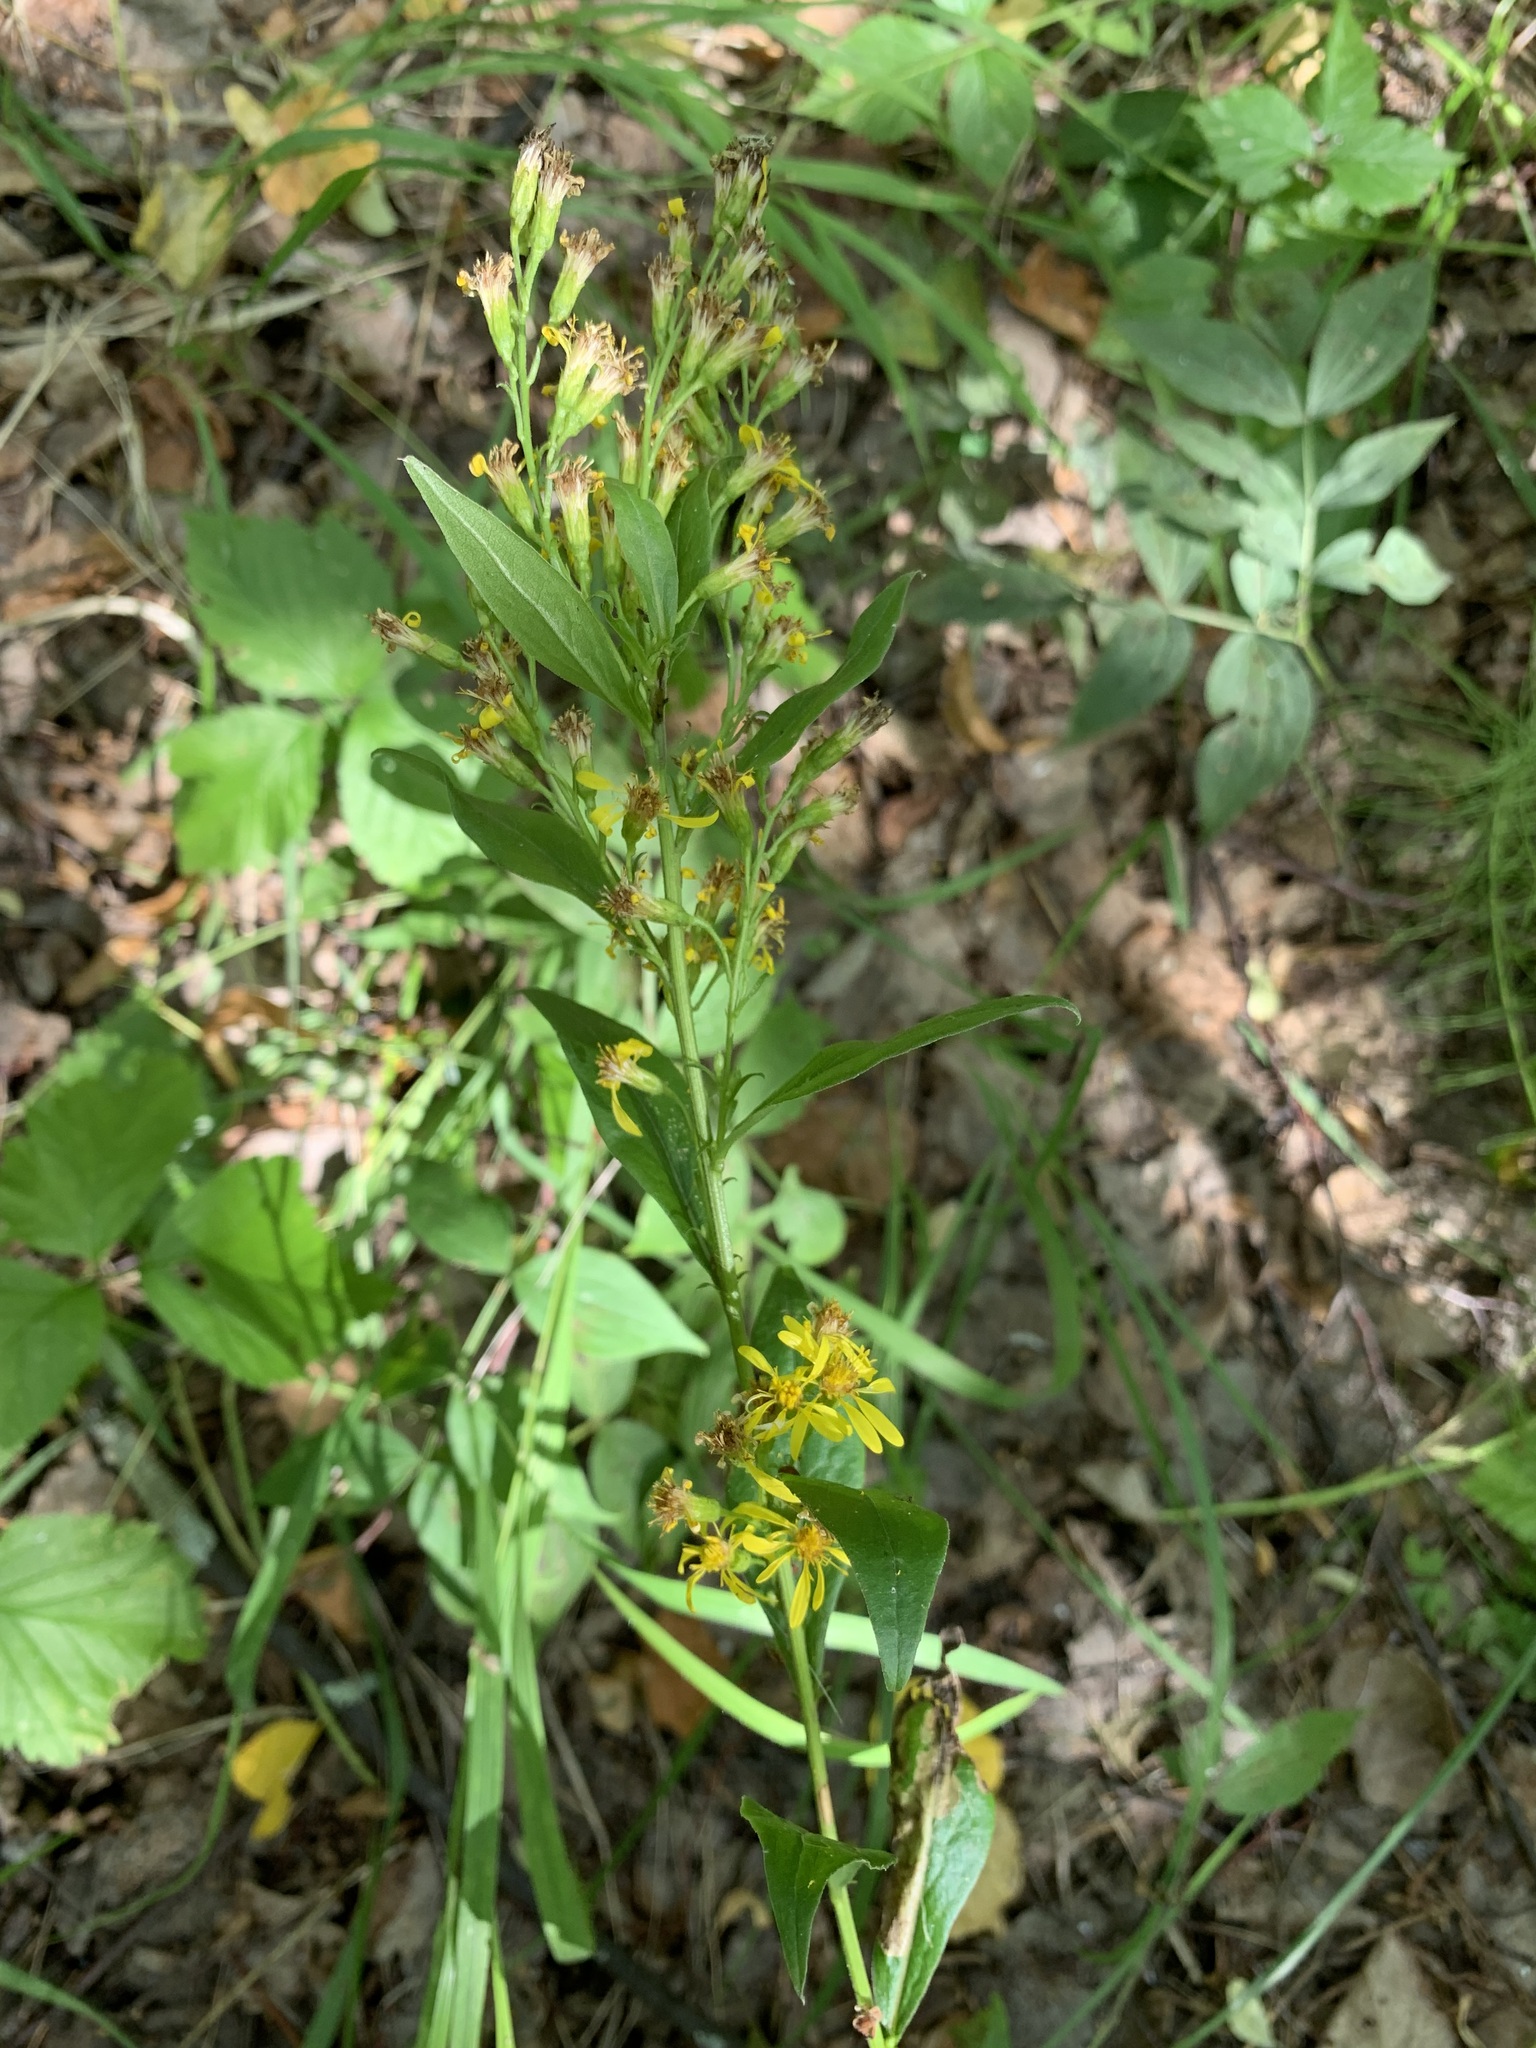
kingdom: Plantae
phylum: Tracheophyta
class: Magnoliopsida
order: Asterales
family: Asteraceae
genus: Solidago
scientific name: Solidago virgaurea
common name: Goldenrod
